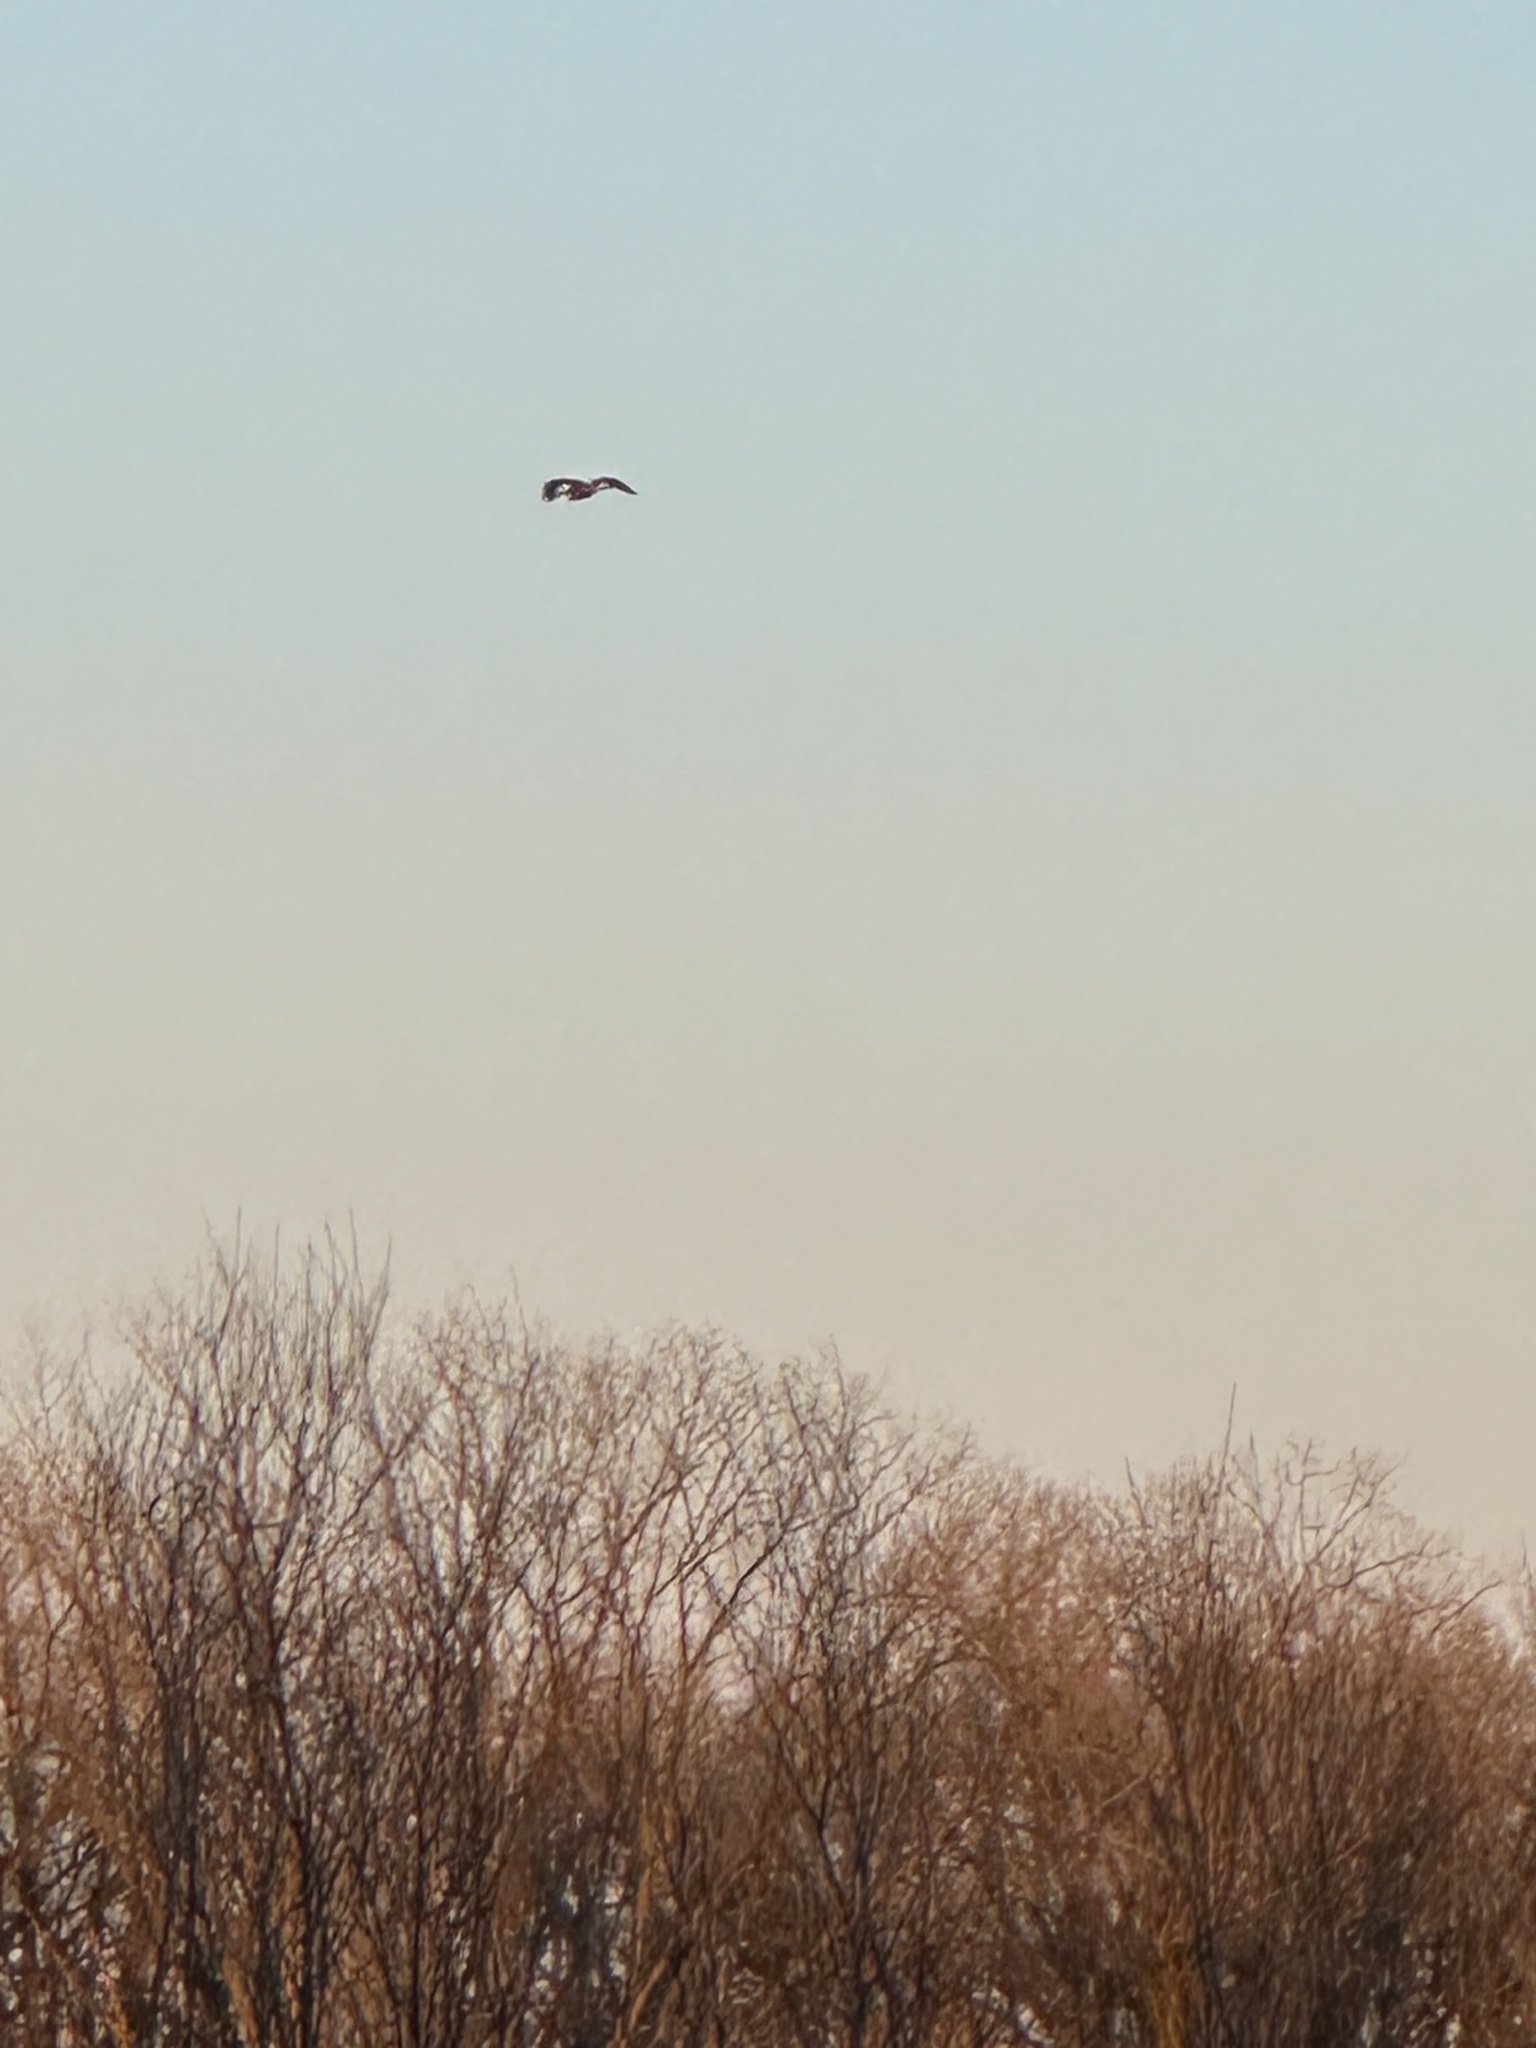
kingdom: Animalia
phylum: Chordata
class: Aves
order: Pelecaniformes
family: Ardeidae
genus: Ardea
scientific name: Ardea herodias
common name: Great blue heron
